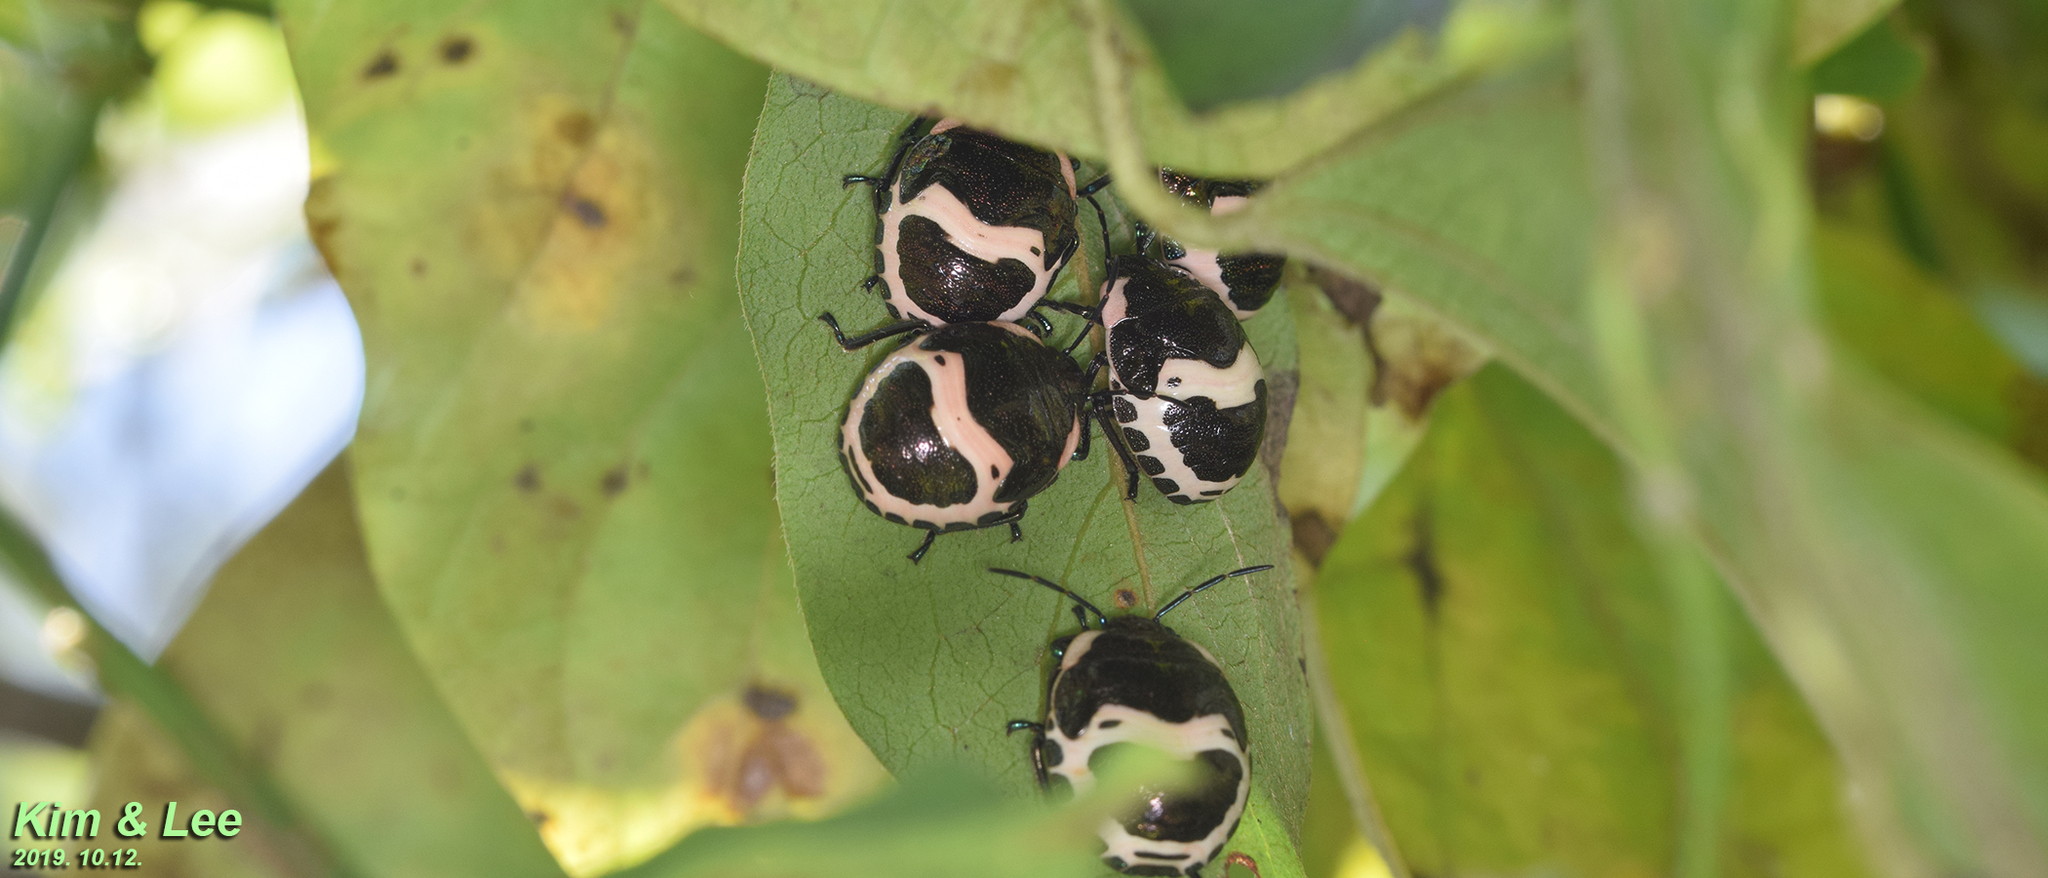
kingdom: Animalia
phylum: Arthropoda
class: Insecta
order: Hemiptera
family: Scutelleridae
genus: Poecilocoris
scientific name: Poecilocoris lewisi
